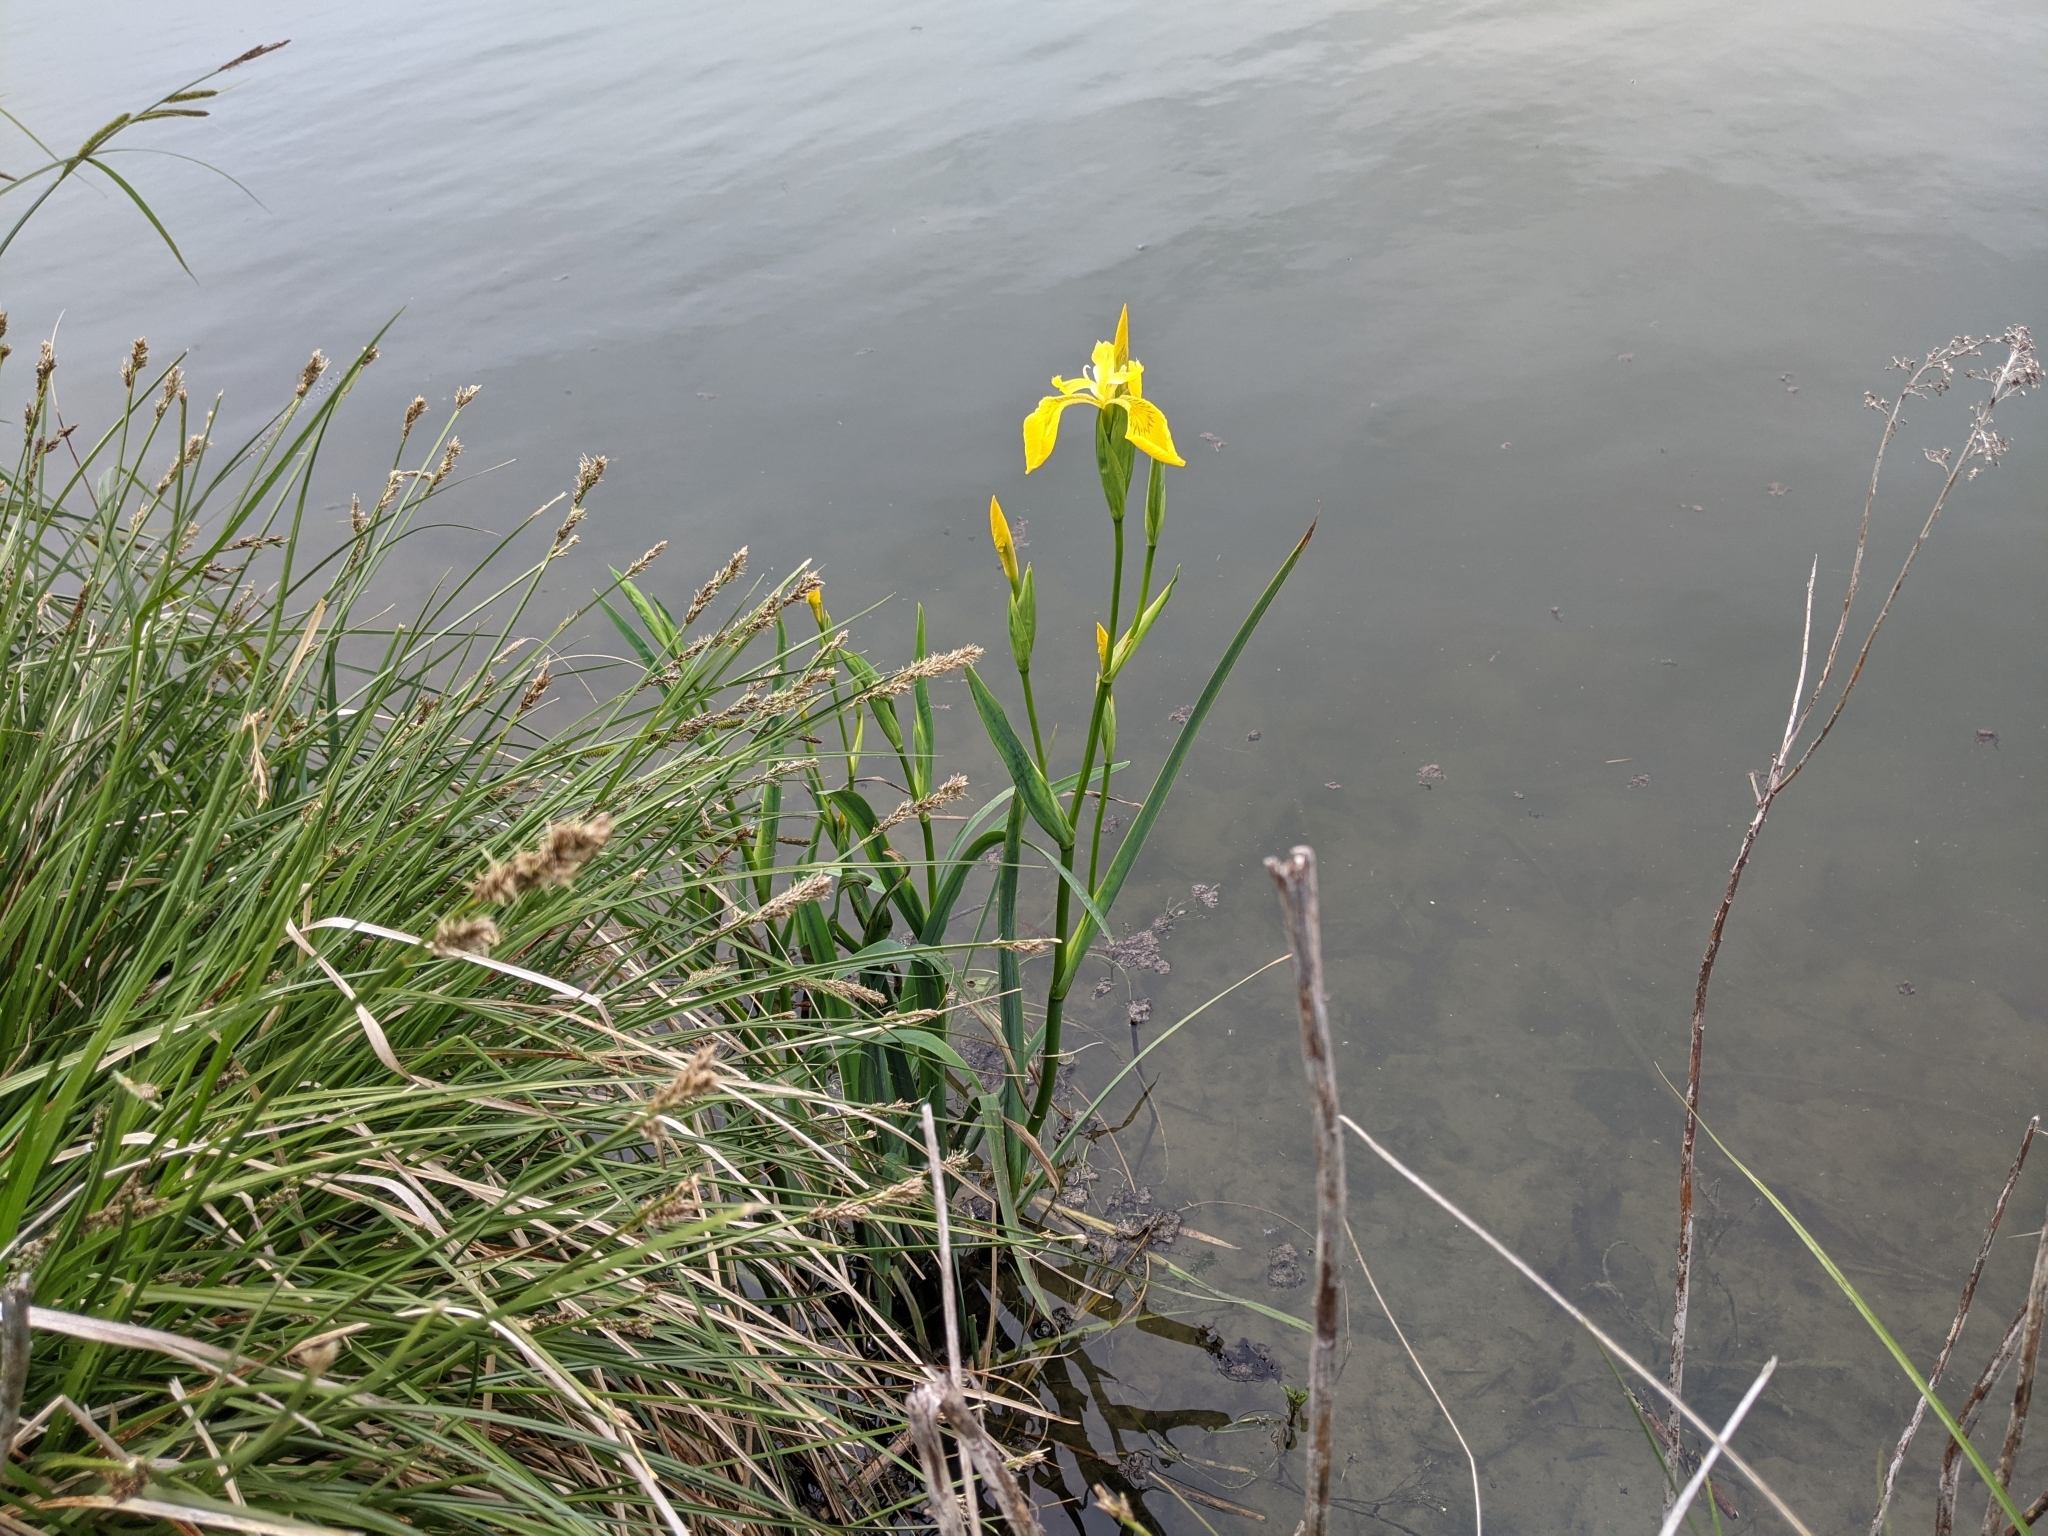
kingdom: Plantae
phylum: Tracheophyta
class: Liliopsida
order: Asparagales
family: Iridaceae
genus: Iris
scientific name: Iris pseudacorus
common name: Yellow flag
